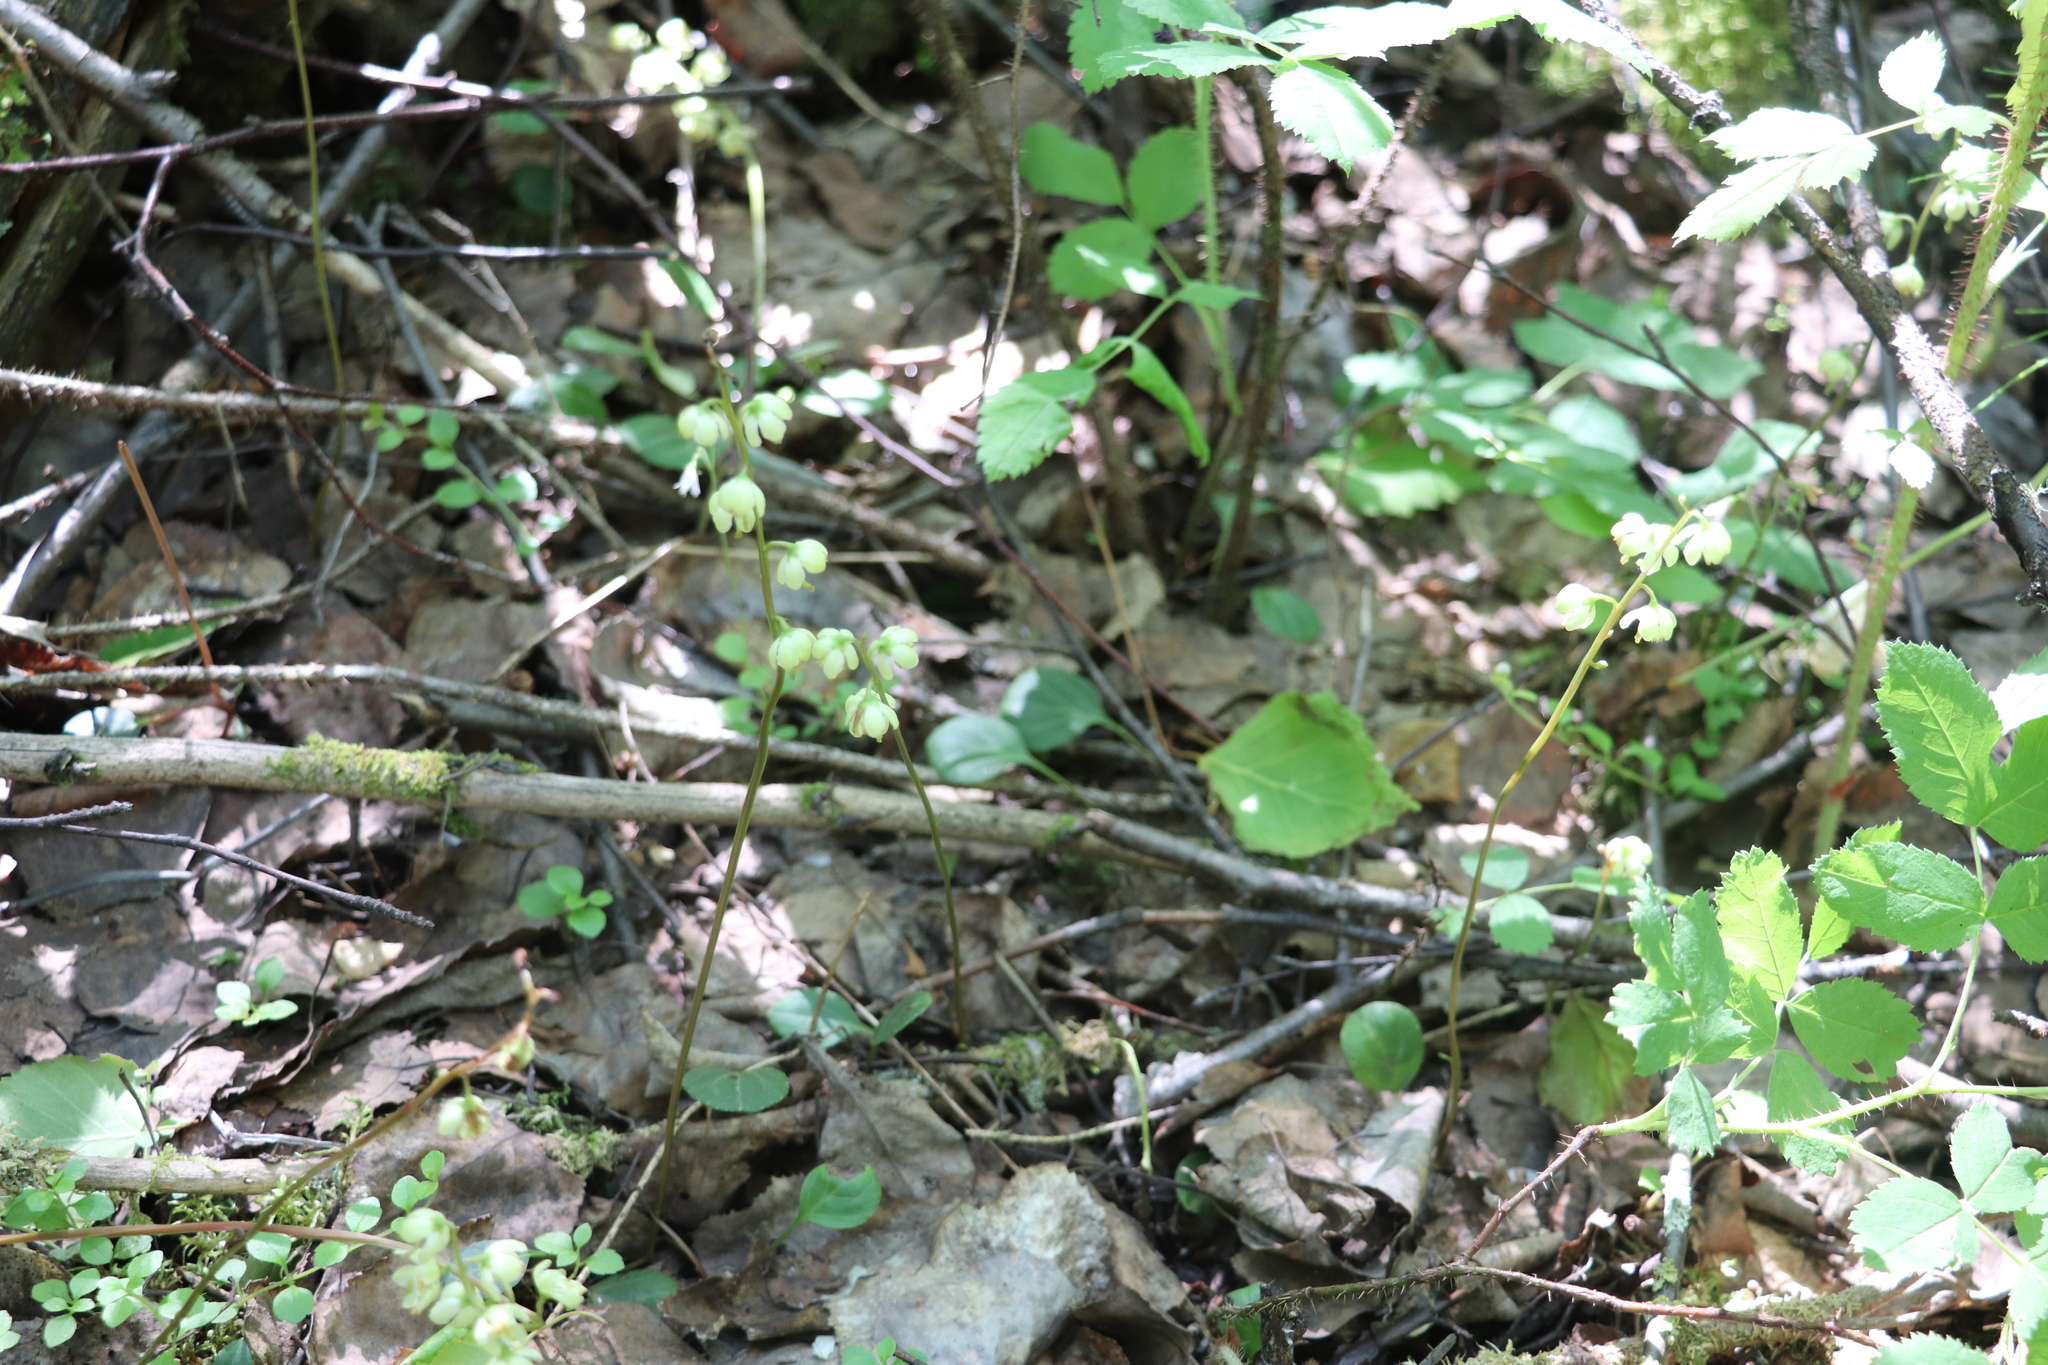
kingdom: Plantae
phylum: Tracheophyta
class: Magnoliopsida
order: Ericales
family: Ericaceae
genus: Pyrola
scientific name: Pyrola chlorantha
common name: Green wintergreen
